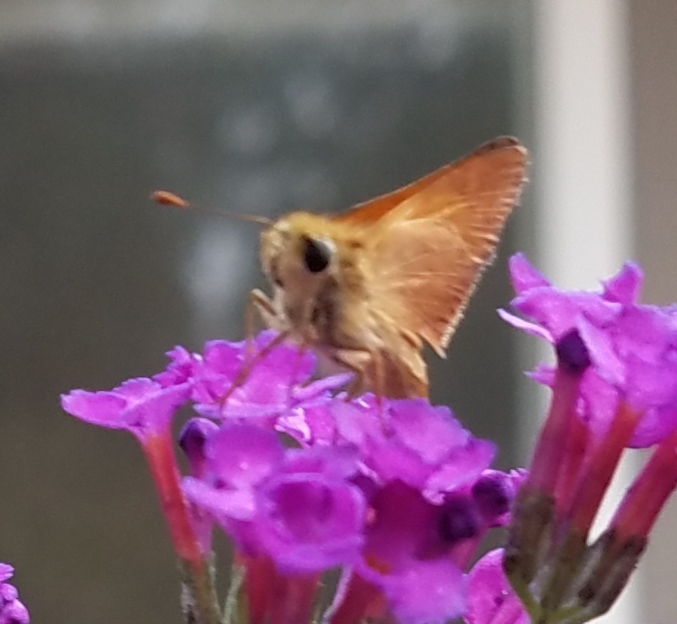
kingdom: Animalia
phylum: Arthropoda
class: Insecta
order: Lepidoptera
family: Hesperiidae
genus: Ochlodes
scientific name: Ochlodes sylvanoides
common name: Woodland skipper
